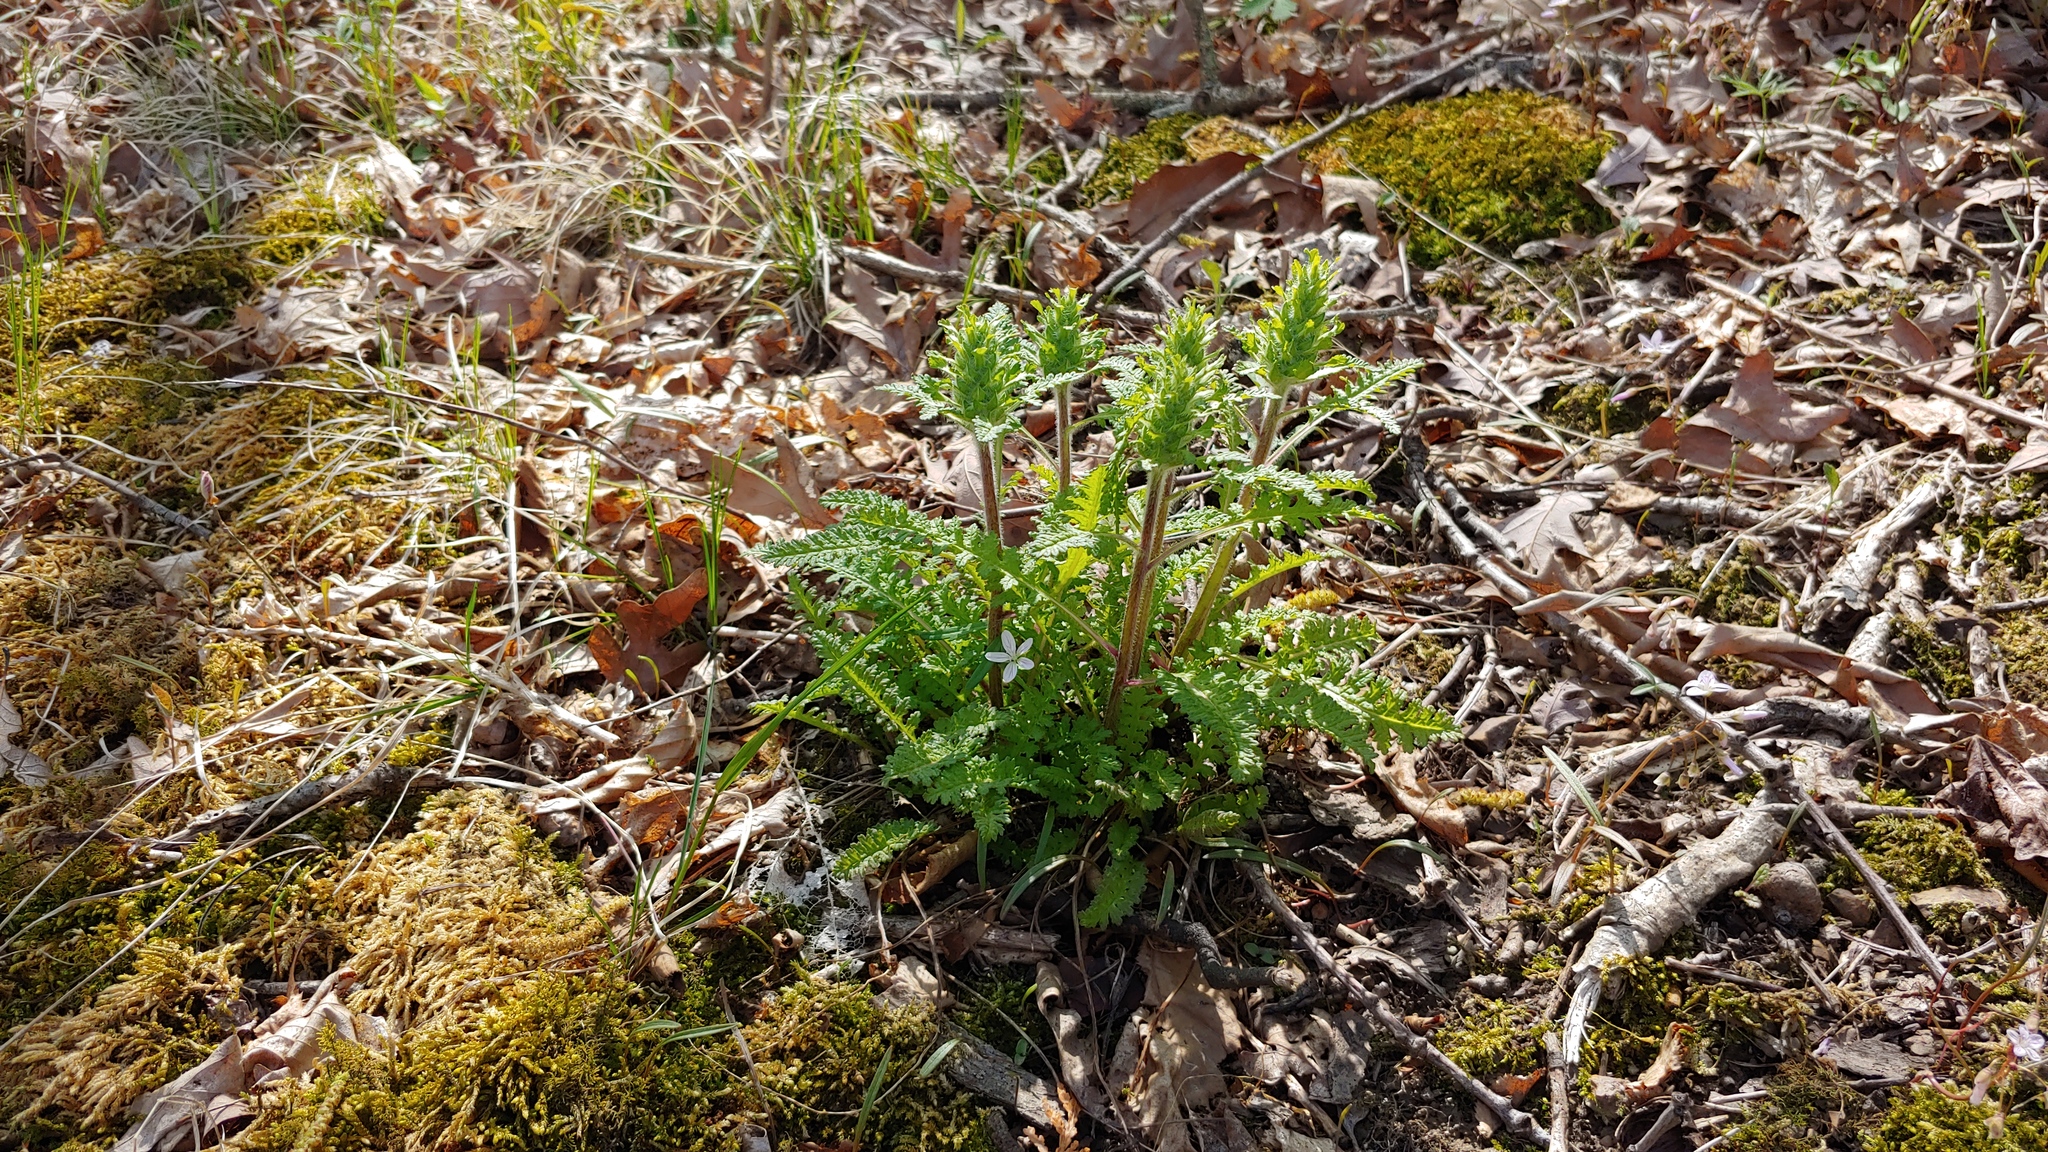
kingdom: Plantae
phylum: Tracheophyta
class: Magnoliopsida
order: Lamiales
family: Orobanchaceae
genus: Pedicularis
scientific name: Pedicularis canadensis
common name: Early lousewort
